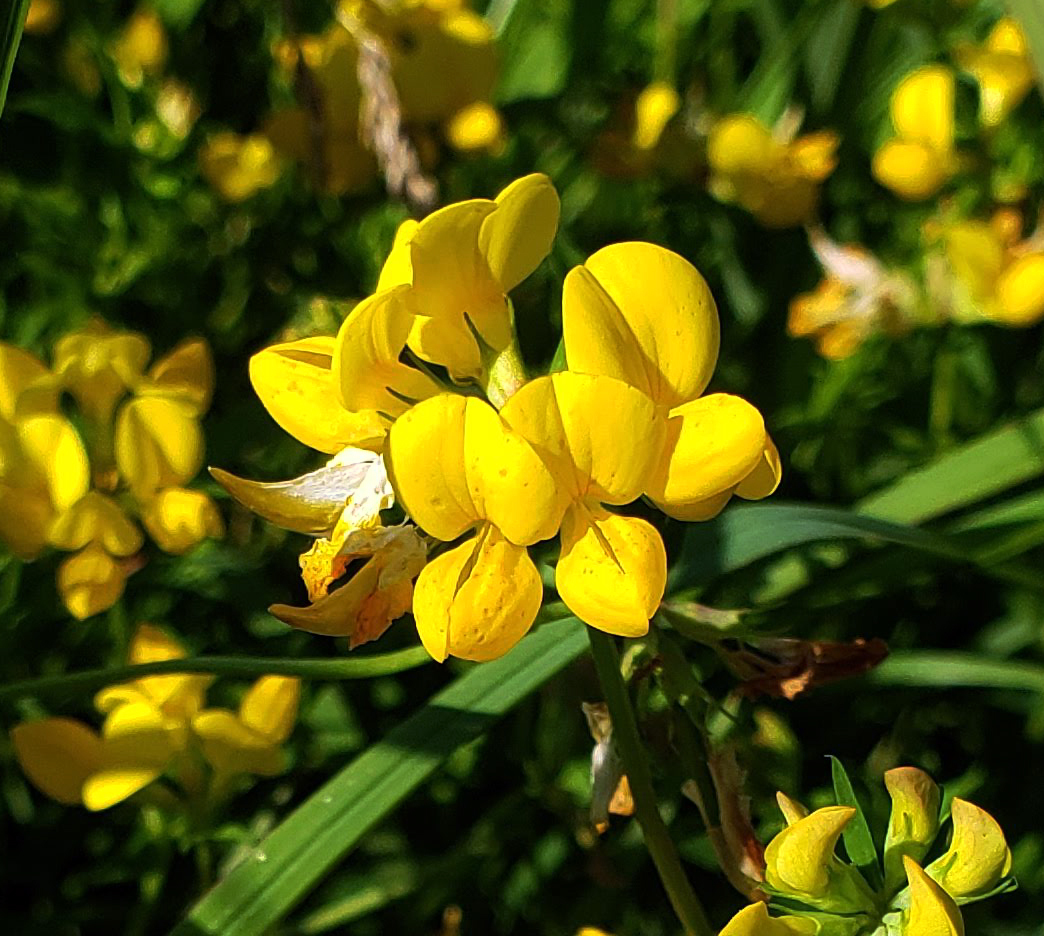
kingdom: Plantae
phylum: Tracheophyta
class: Magnoliopsida
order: Fabales
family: Fabaceae
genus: Lotus
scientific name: Lotus corniculatus
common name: Common bird's-foot-trefoil
